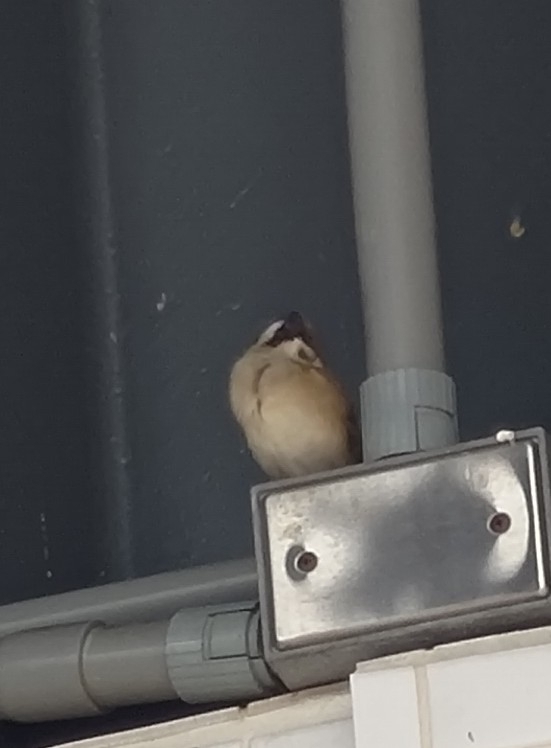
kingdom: Animalia
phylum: Chordata
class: Aves
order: Passeriformes
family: Passeridae
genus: Passer
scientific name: Passer montanus
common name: Eurasian tree sparrow
